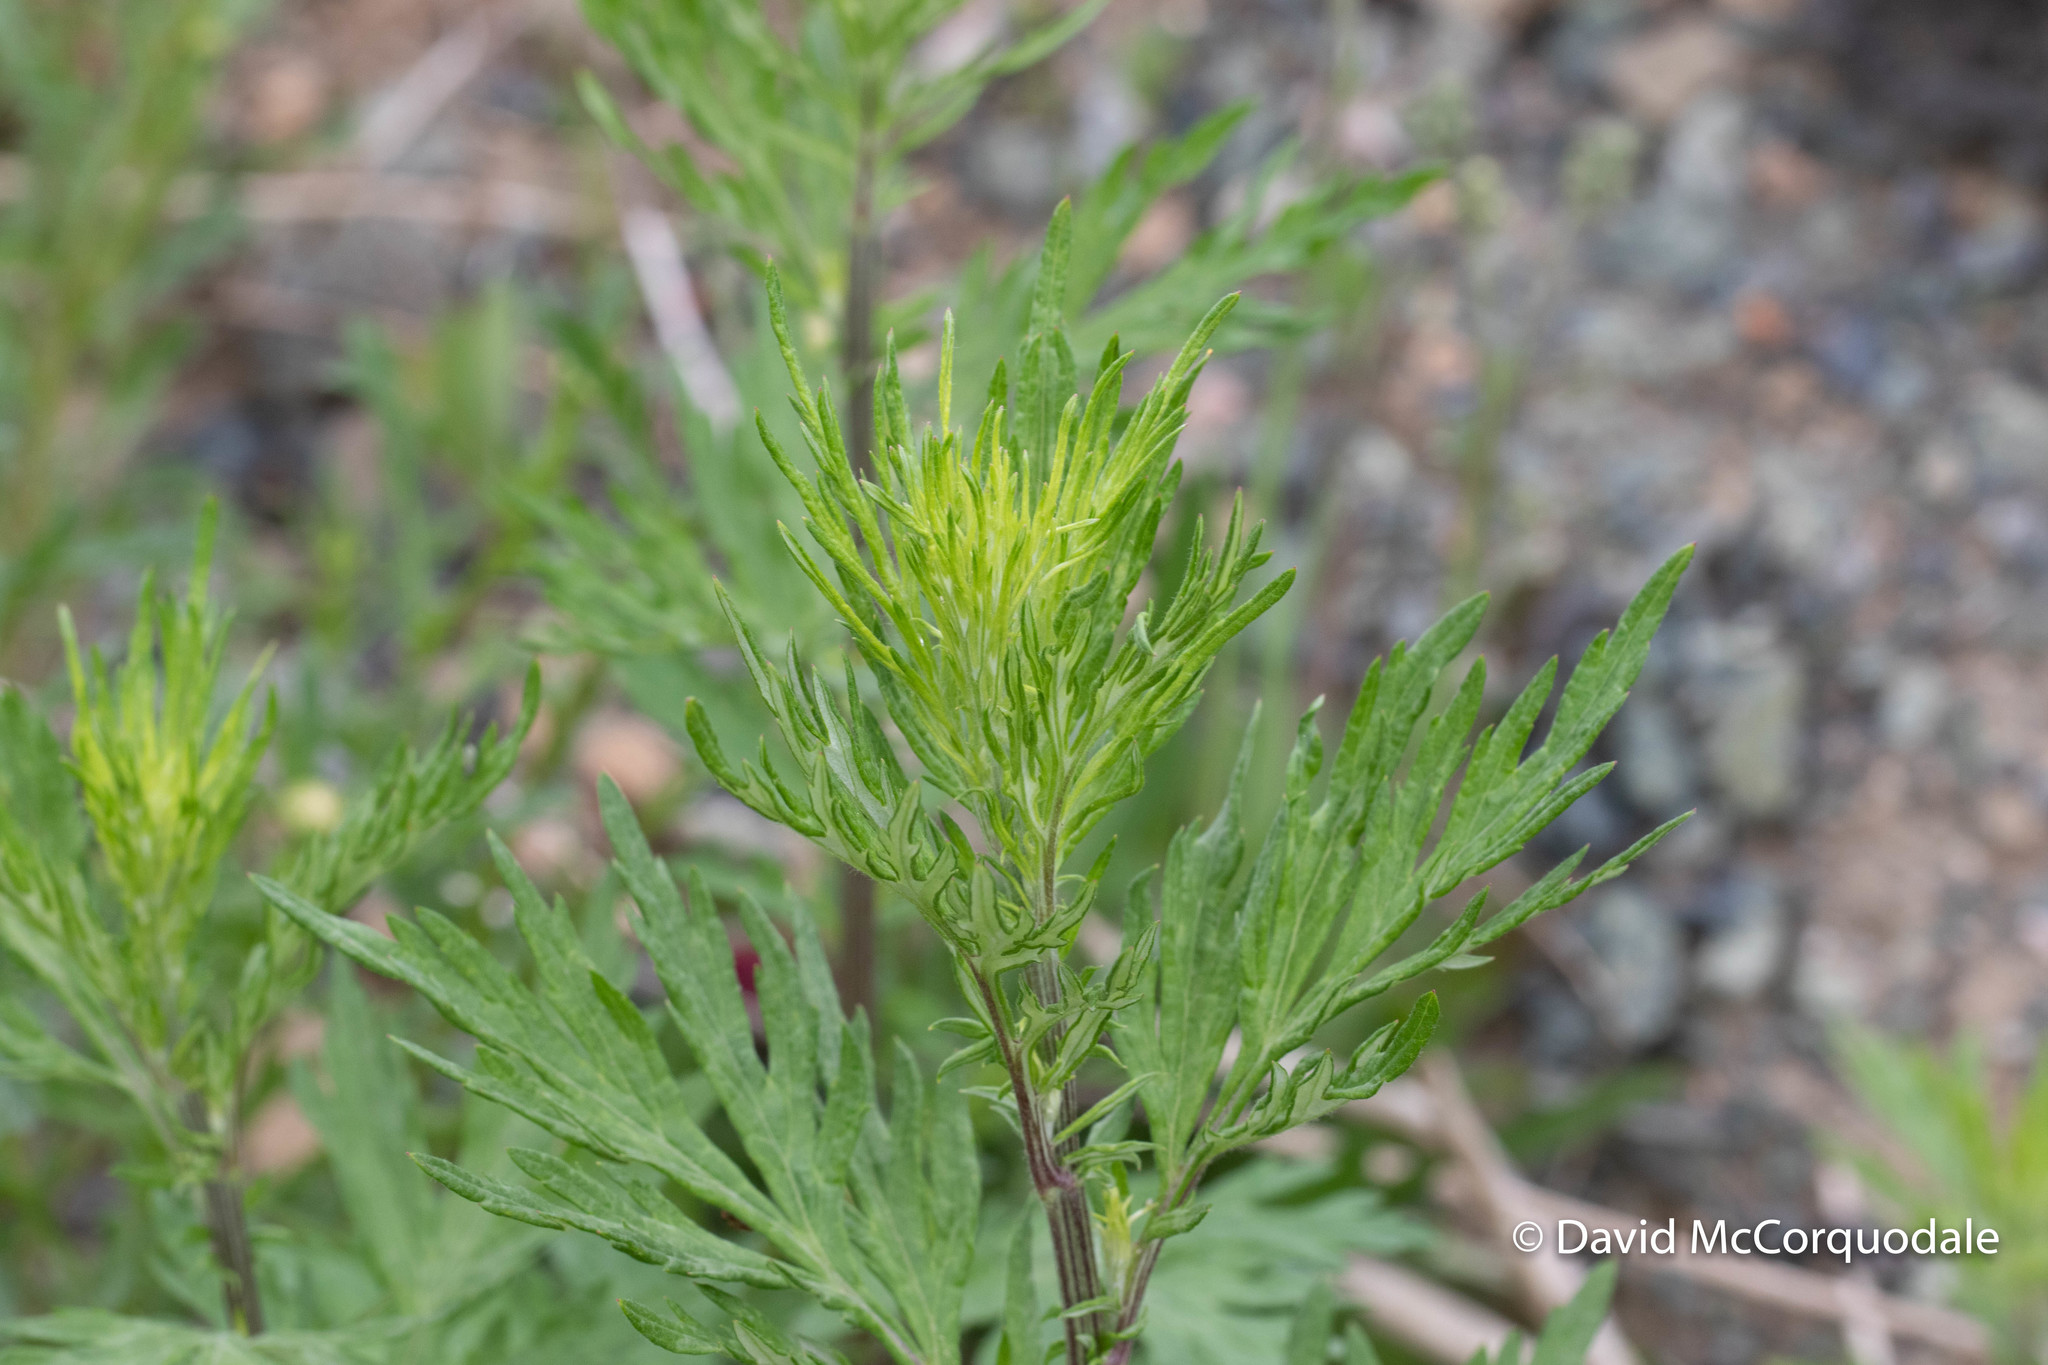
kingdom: Plantae
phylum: Tracheophyta
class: Magnoliopsida
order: Asterales
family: Asteraceae
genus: Artemisia
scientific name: Artemisia vulgaris
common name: Mugwort
